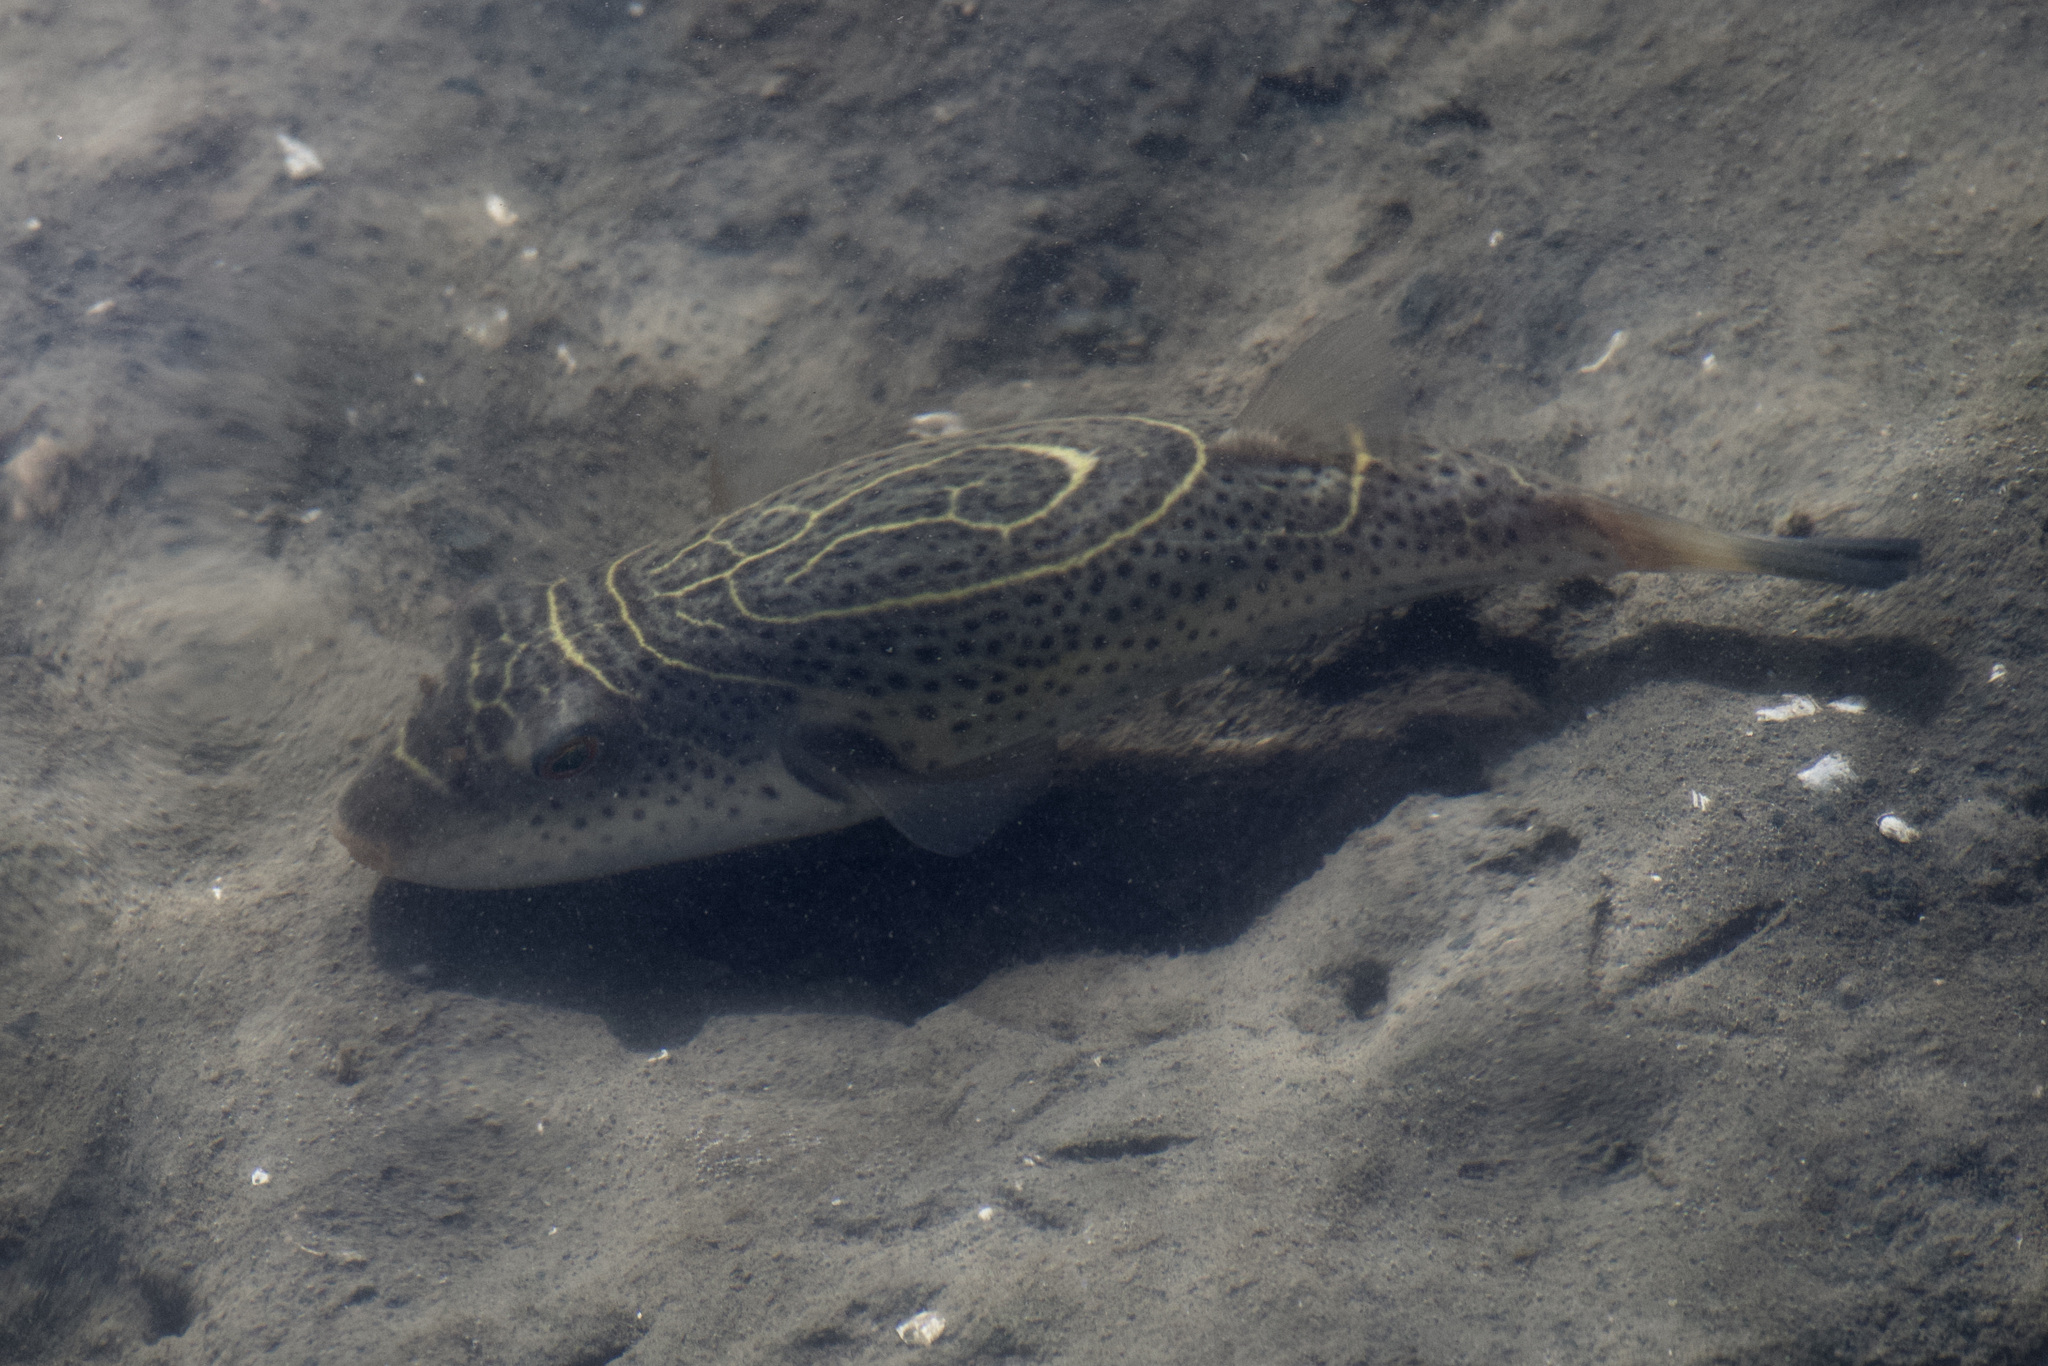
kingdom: Animalia
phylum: Chordata
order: Tetraodontiformes
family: Tetraodontidae
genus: Sphoeroides
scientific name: Sphoeroides rosenblatti
